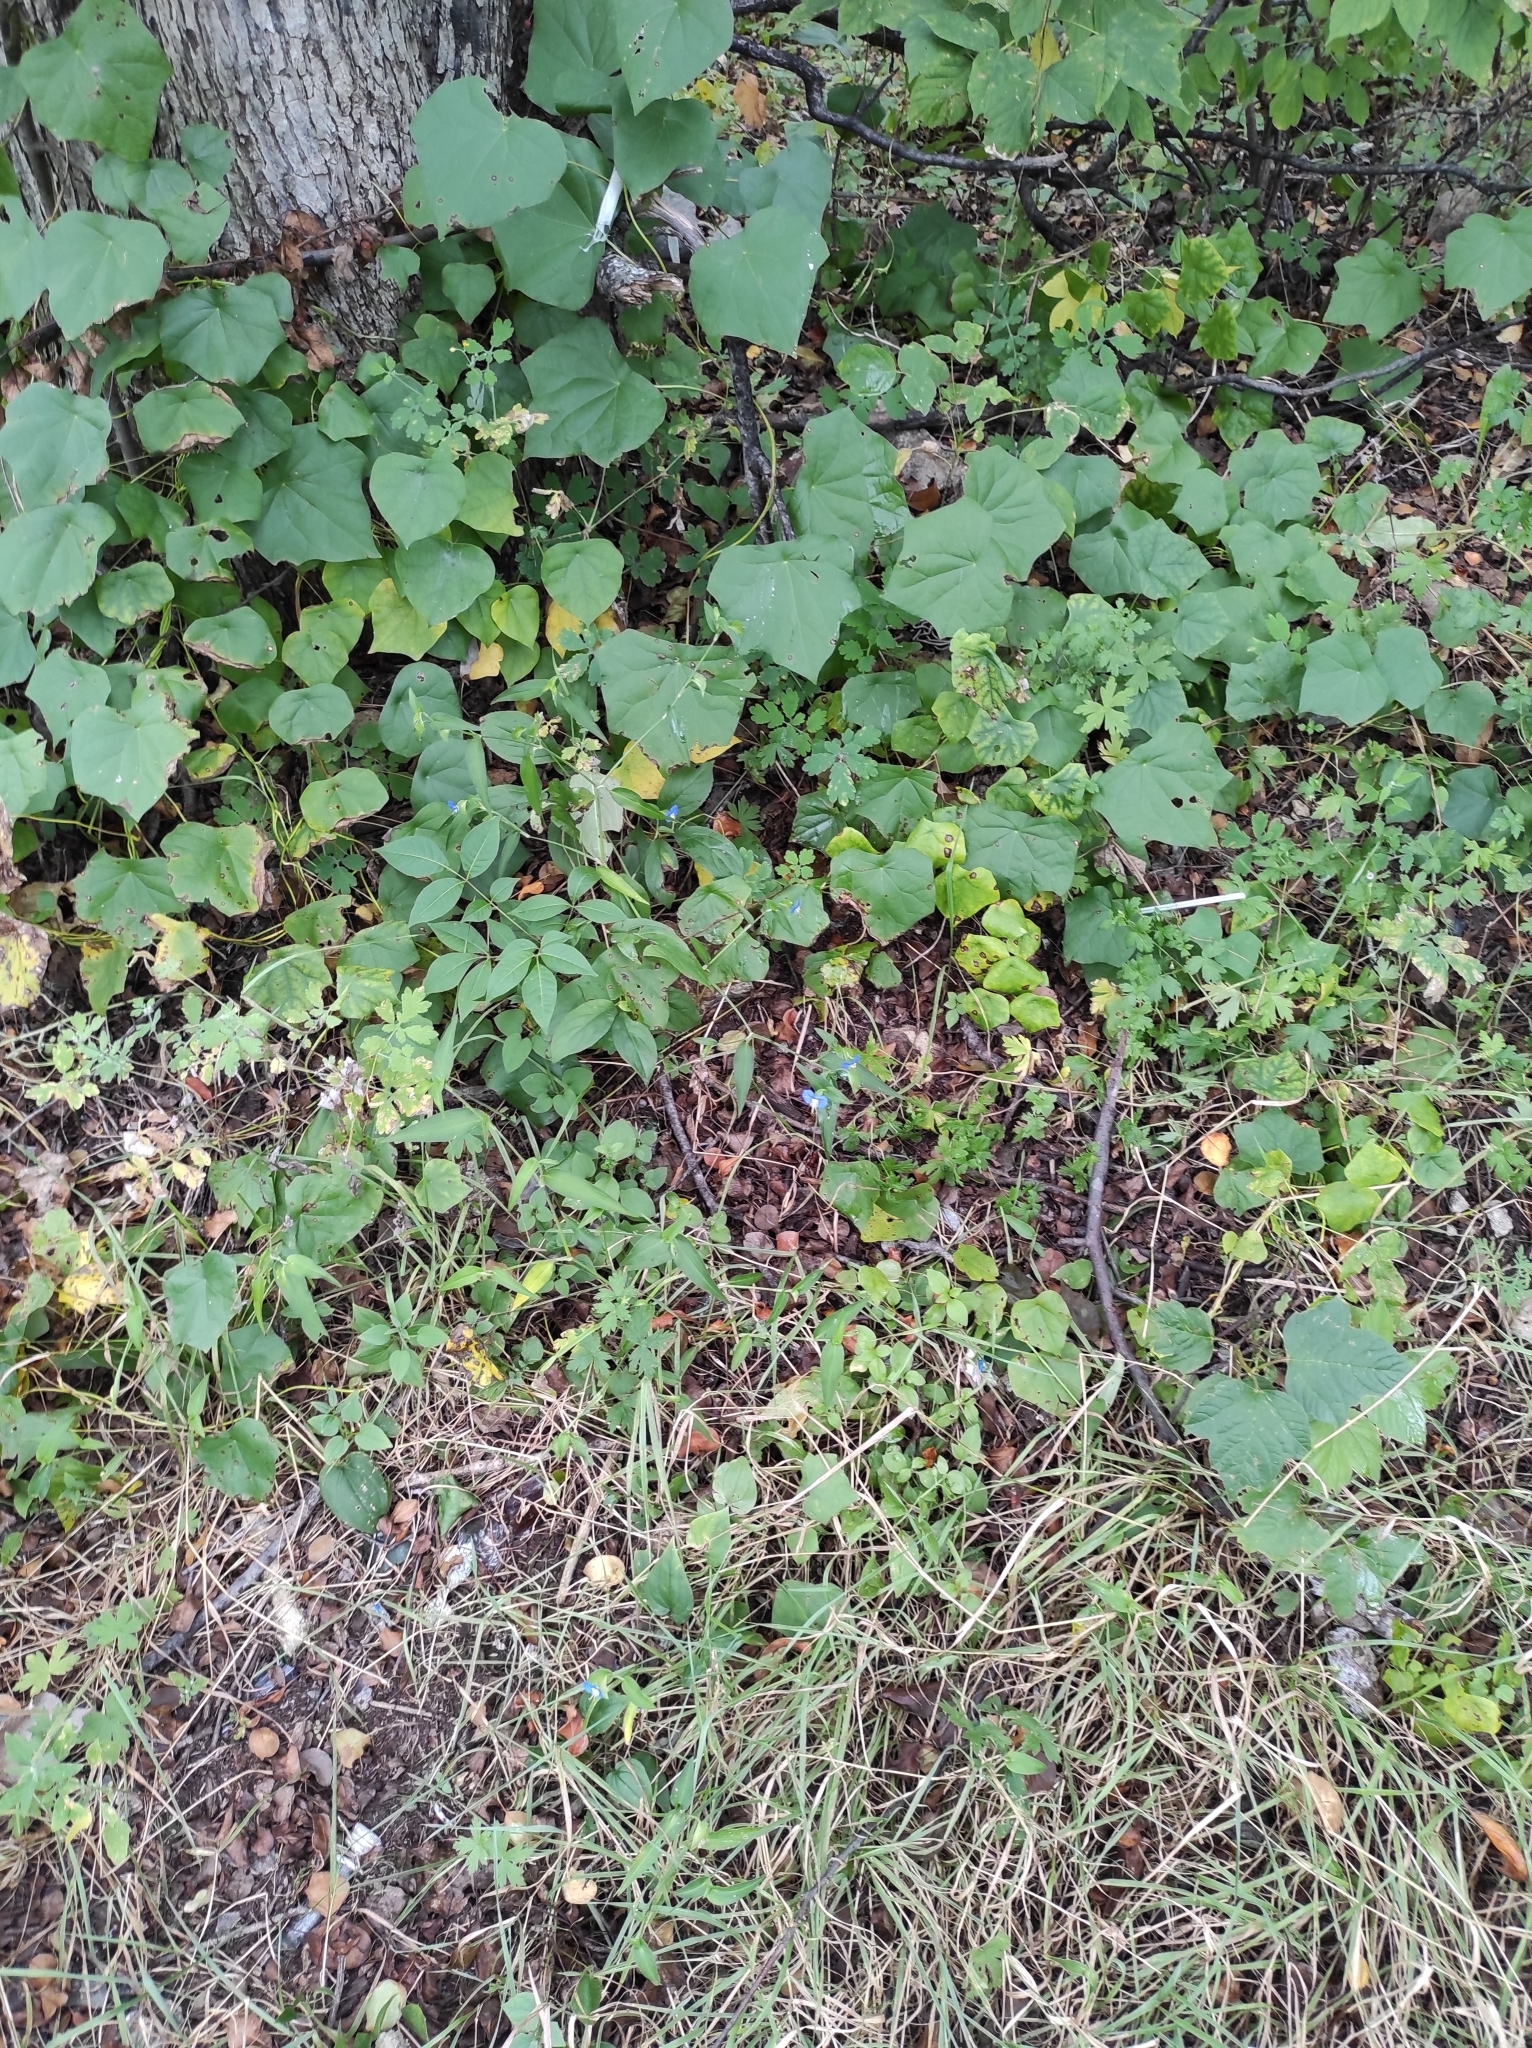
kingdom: Plantae
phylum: Tracheophyta
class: Liliopsida
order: Commelinales
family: Commelinaceae
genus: Commelina
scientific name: Commelina communis
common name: Asiatic dayflower
